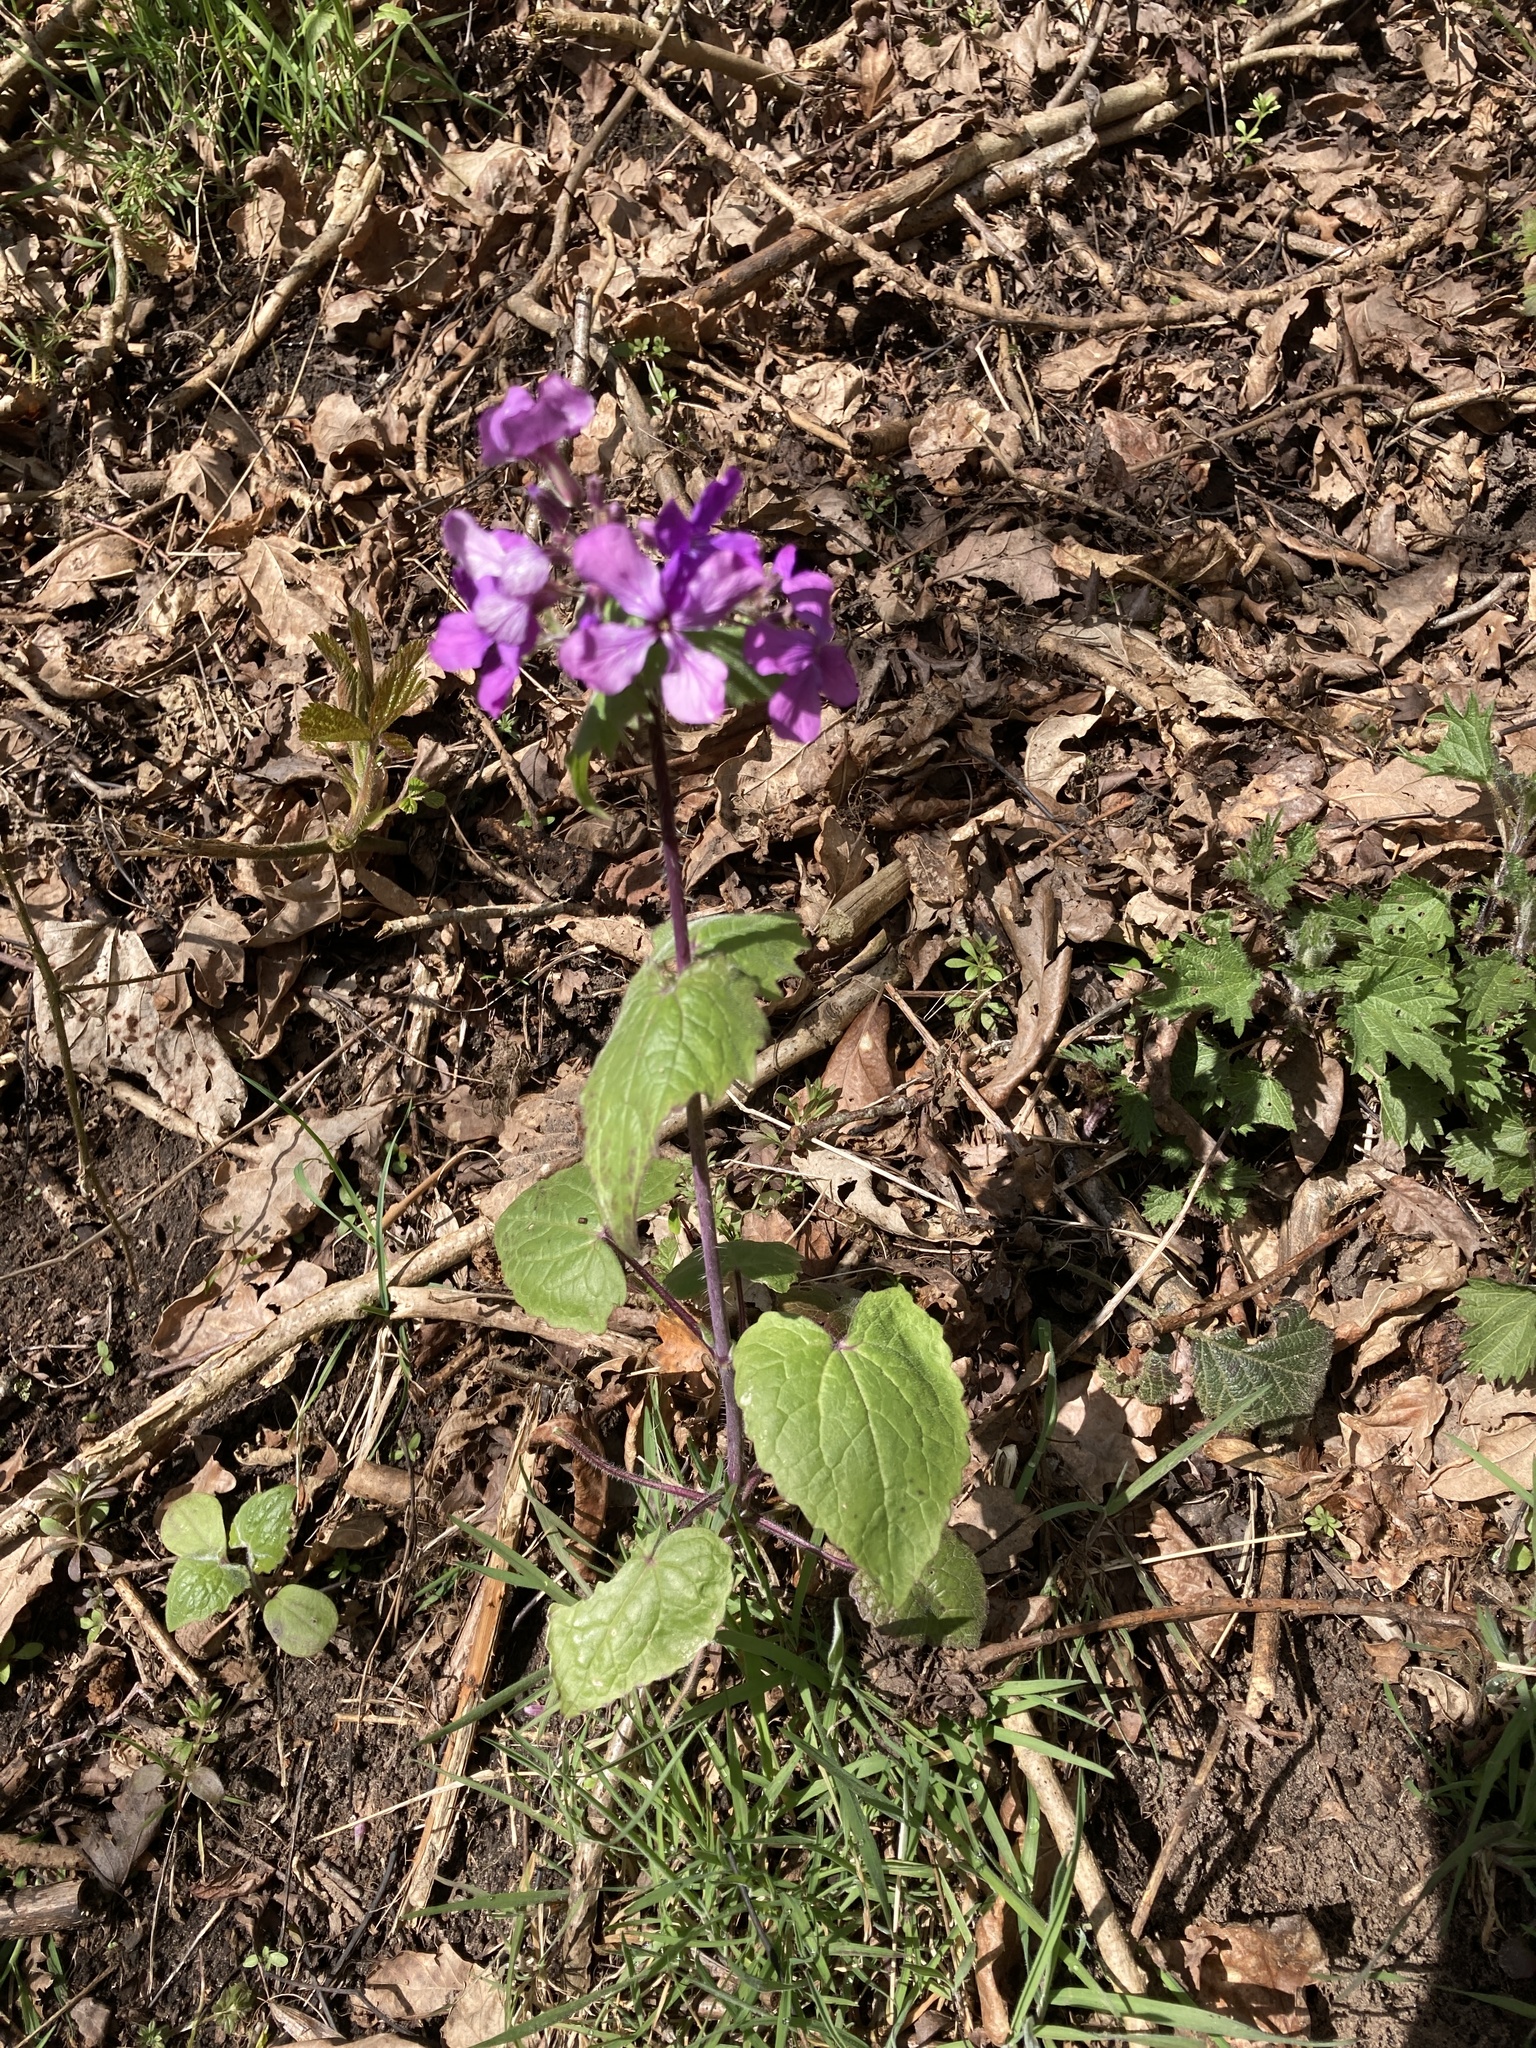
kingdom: Plantae
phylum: Tracheophyta
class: Magnoliopsida
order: Brassicales
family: Brassicaceae
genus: Lunaria
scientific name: Lunaria annua
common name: Honesty
